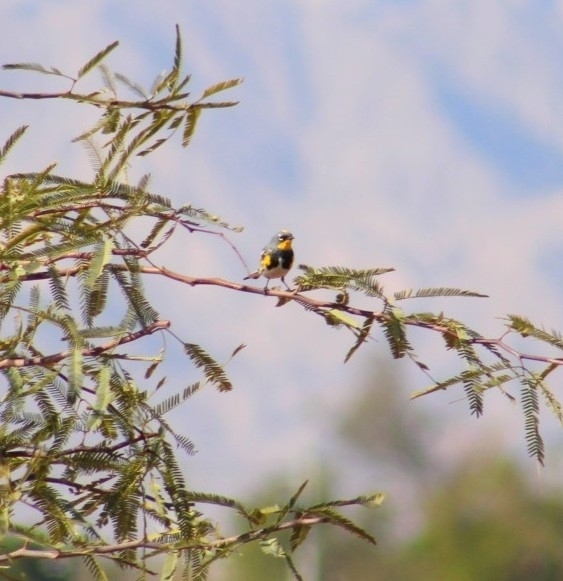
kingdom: Animalia
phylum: Chordata
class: Aves
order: Passeriformes
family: Parulidae
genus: Setophaga
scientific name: Setophaga auduboni
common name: Audubon's warbler
